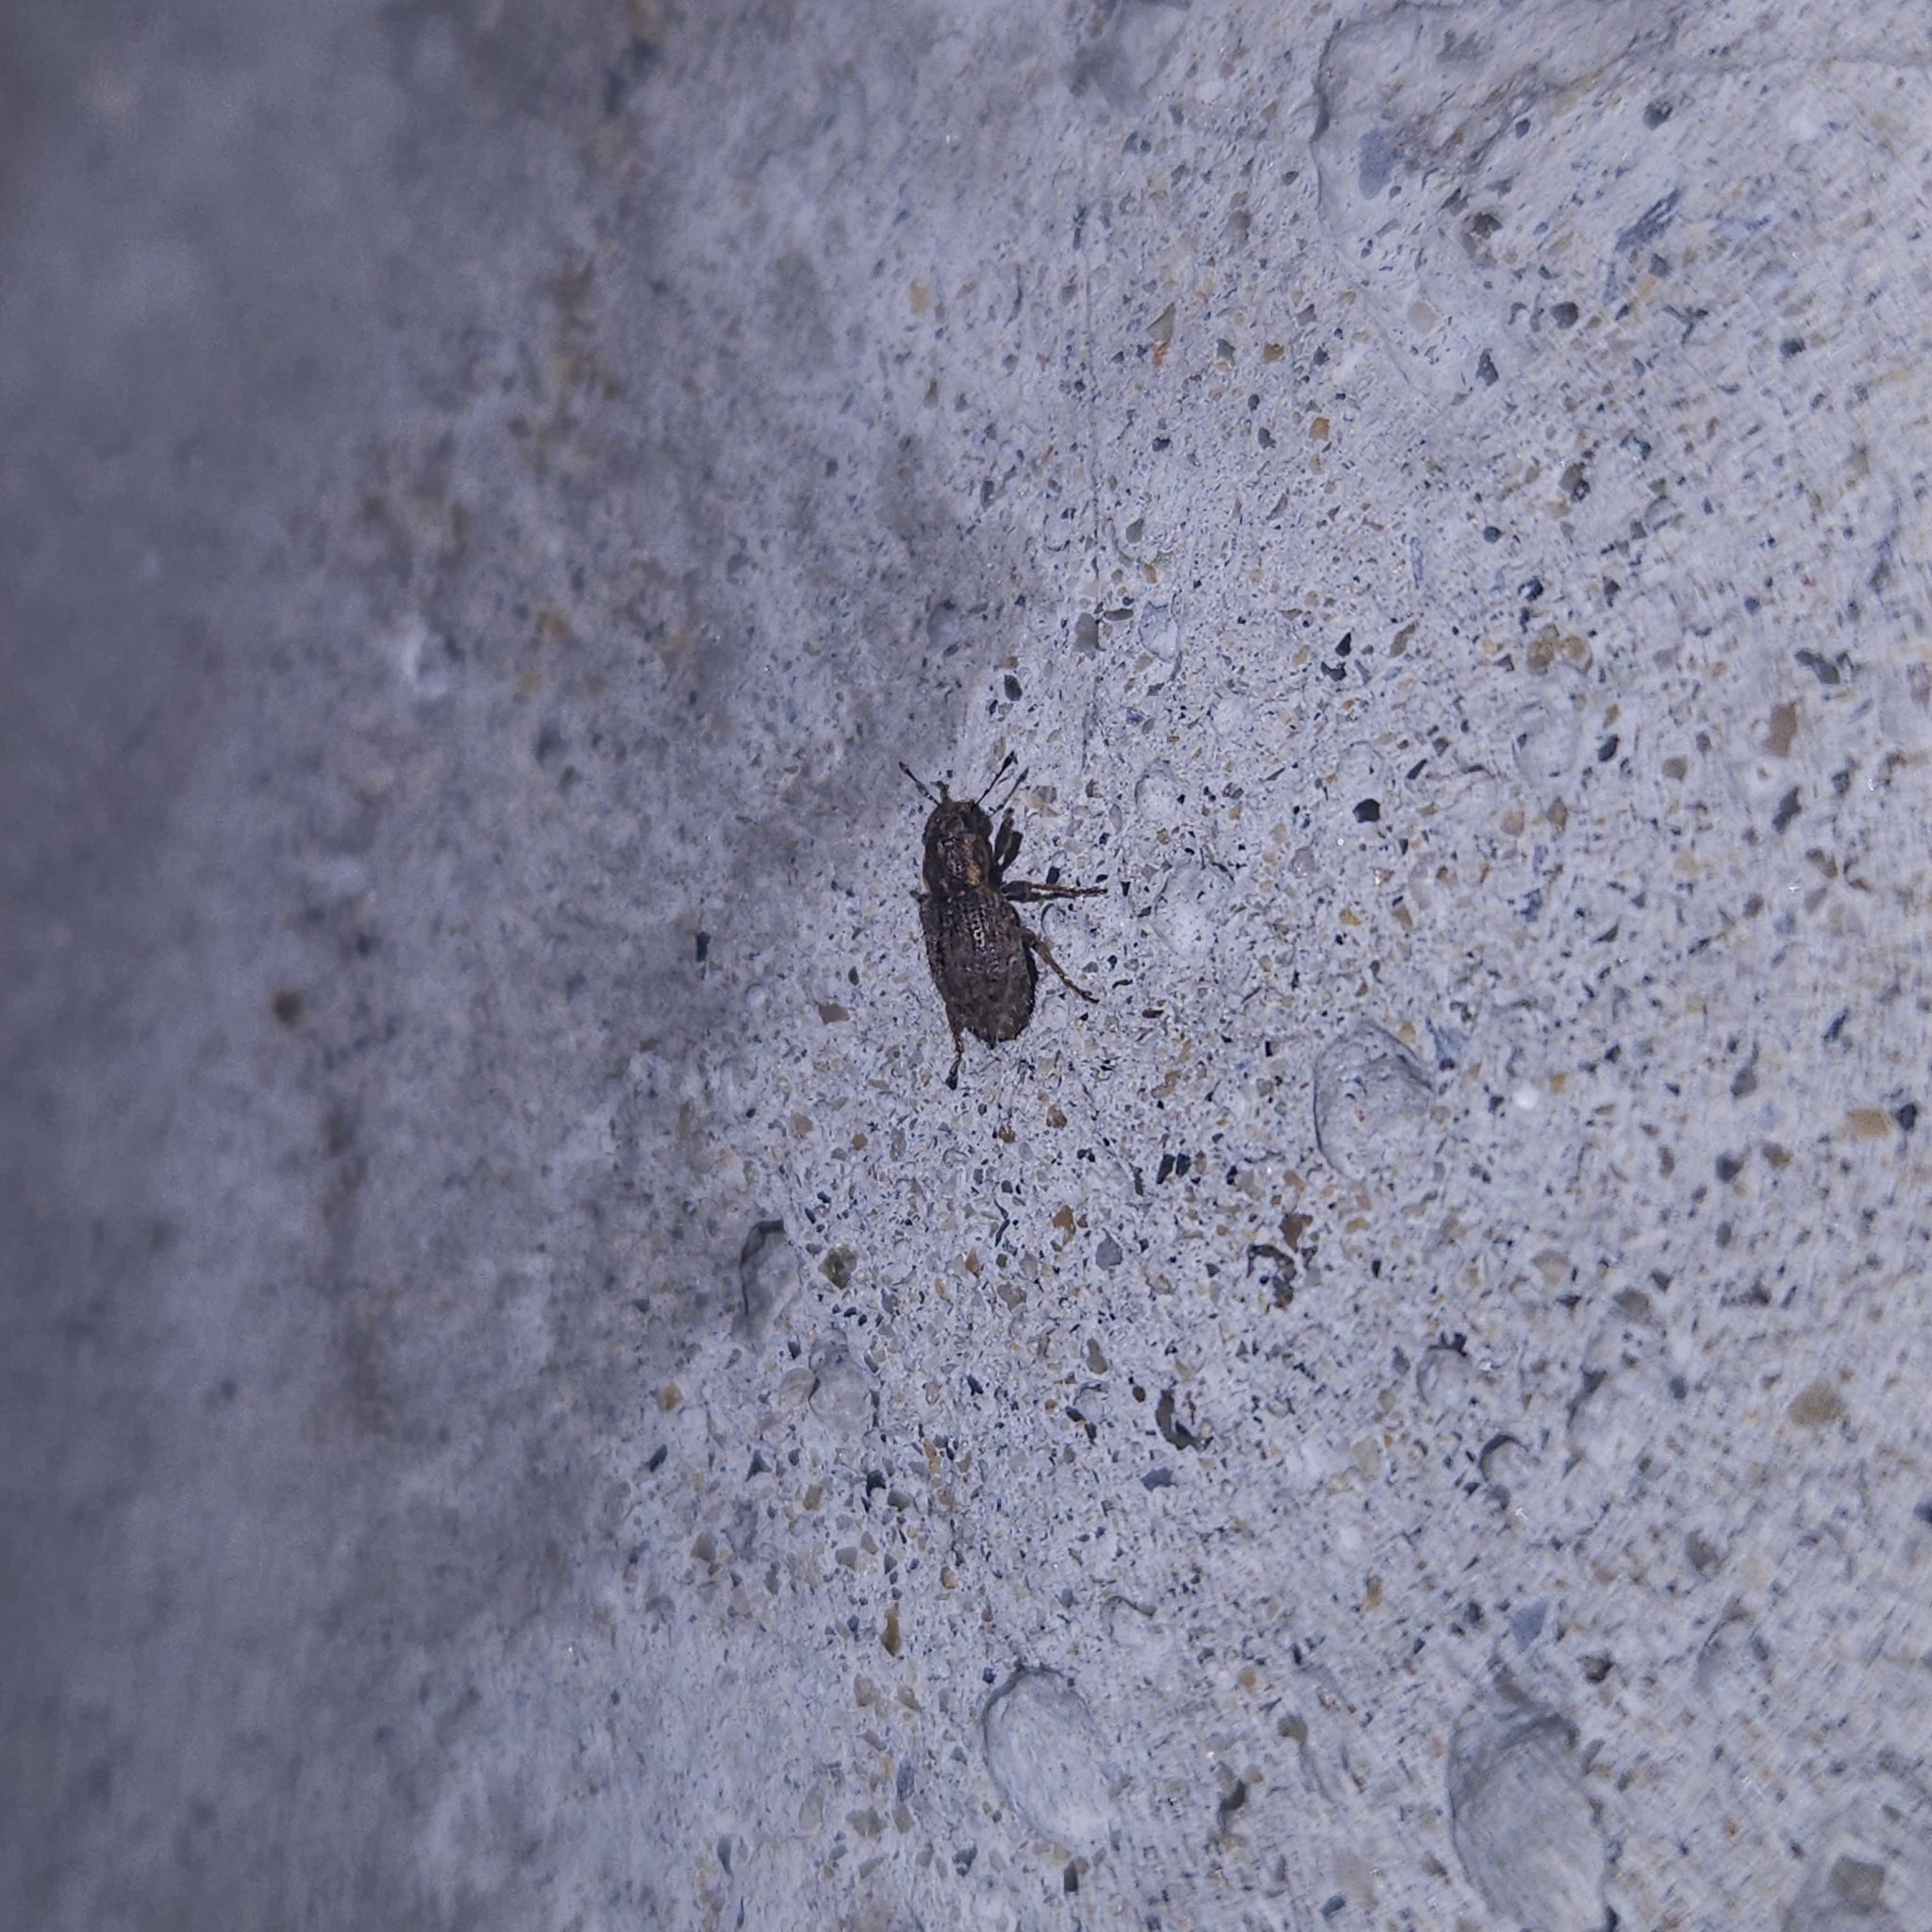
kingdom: Animalia
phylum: Arthropoda
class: Insecta
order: Coleoptera
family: Curculionidae
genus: Sitona
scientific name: Sitona hispidulus
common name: Clover weevil
